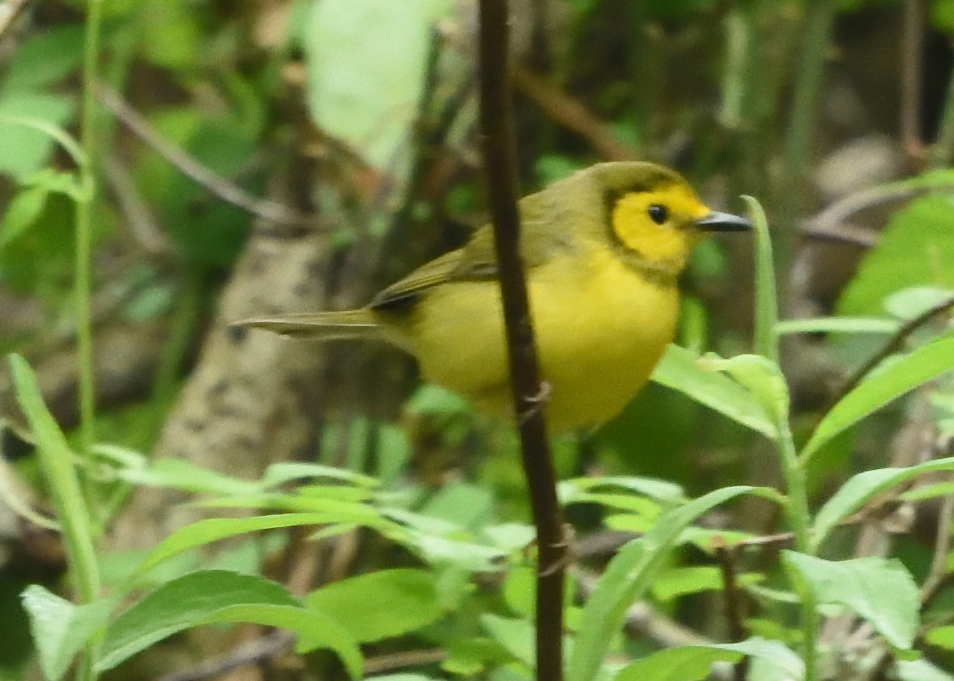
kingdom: Animalia
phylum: Chordata
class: Aves
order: Passeriformes
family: Parulidae
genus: Setophaga
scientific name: Setophaga citrina
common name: Hooded warbler
